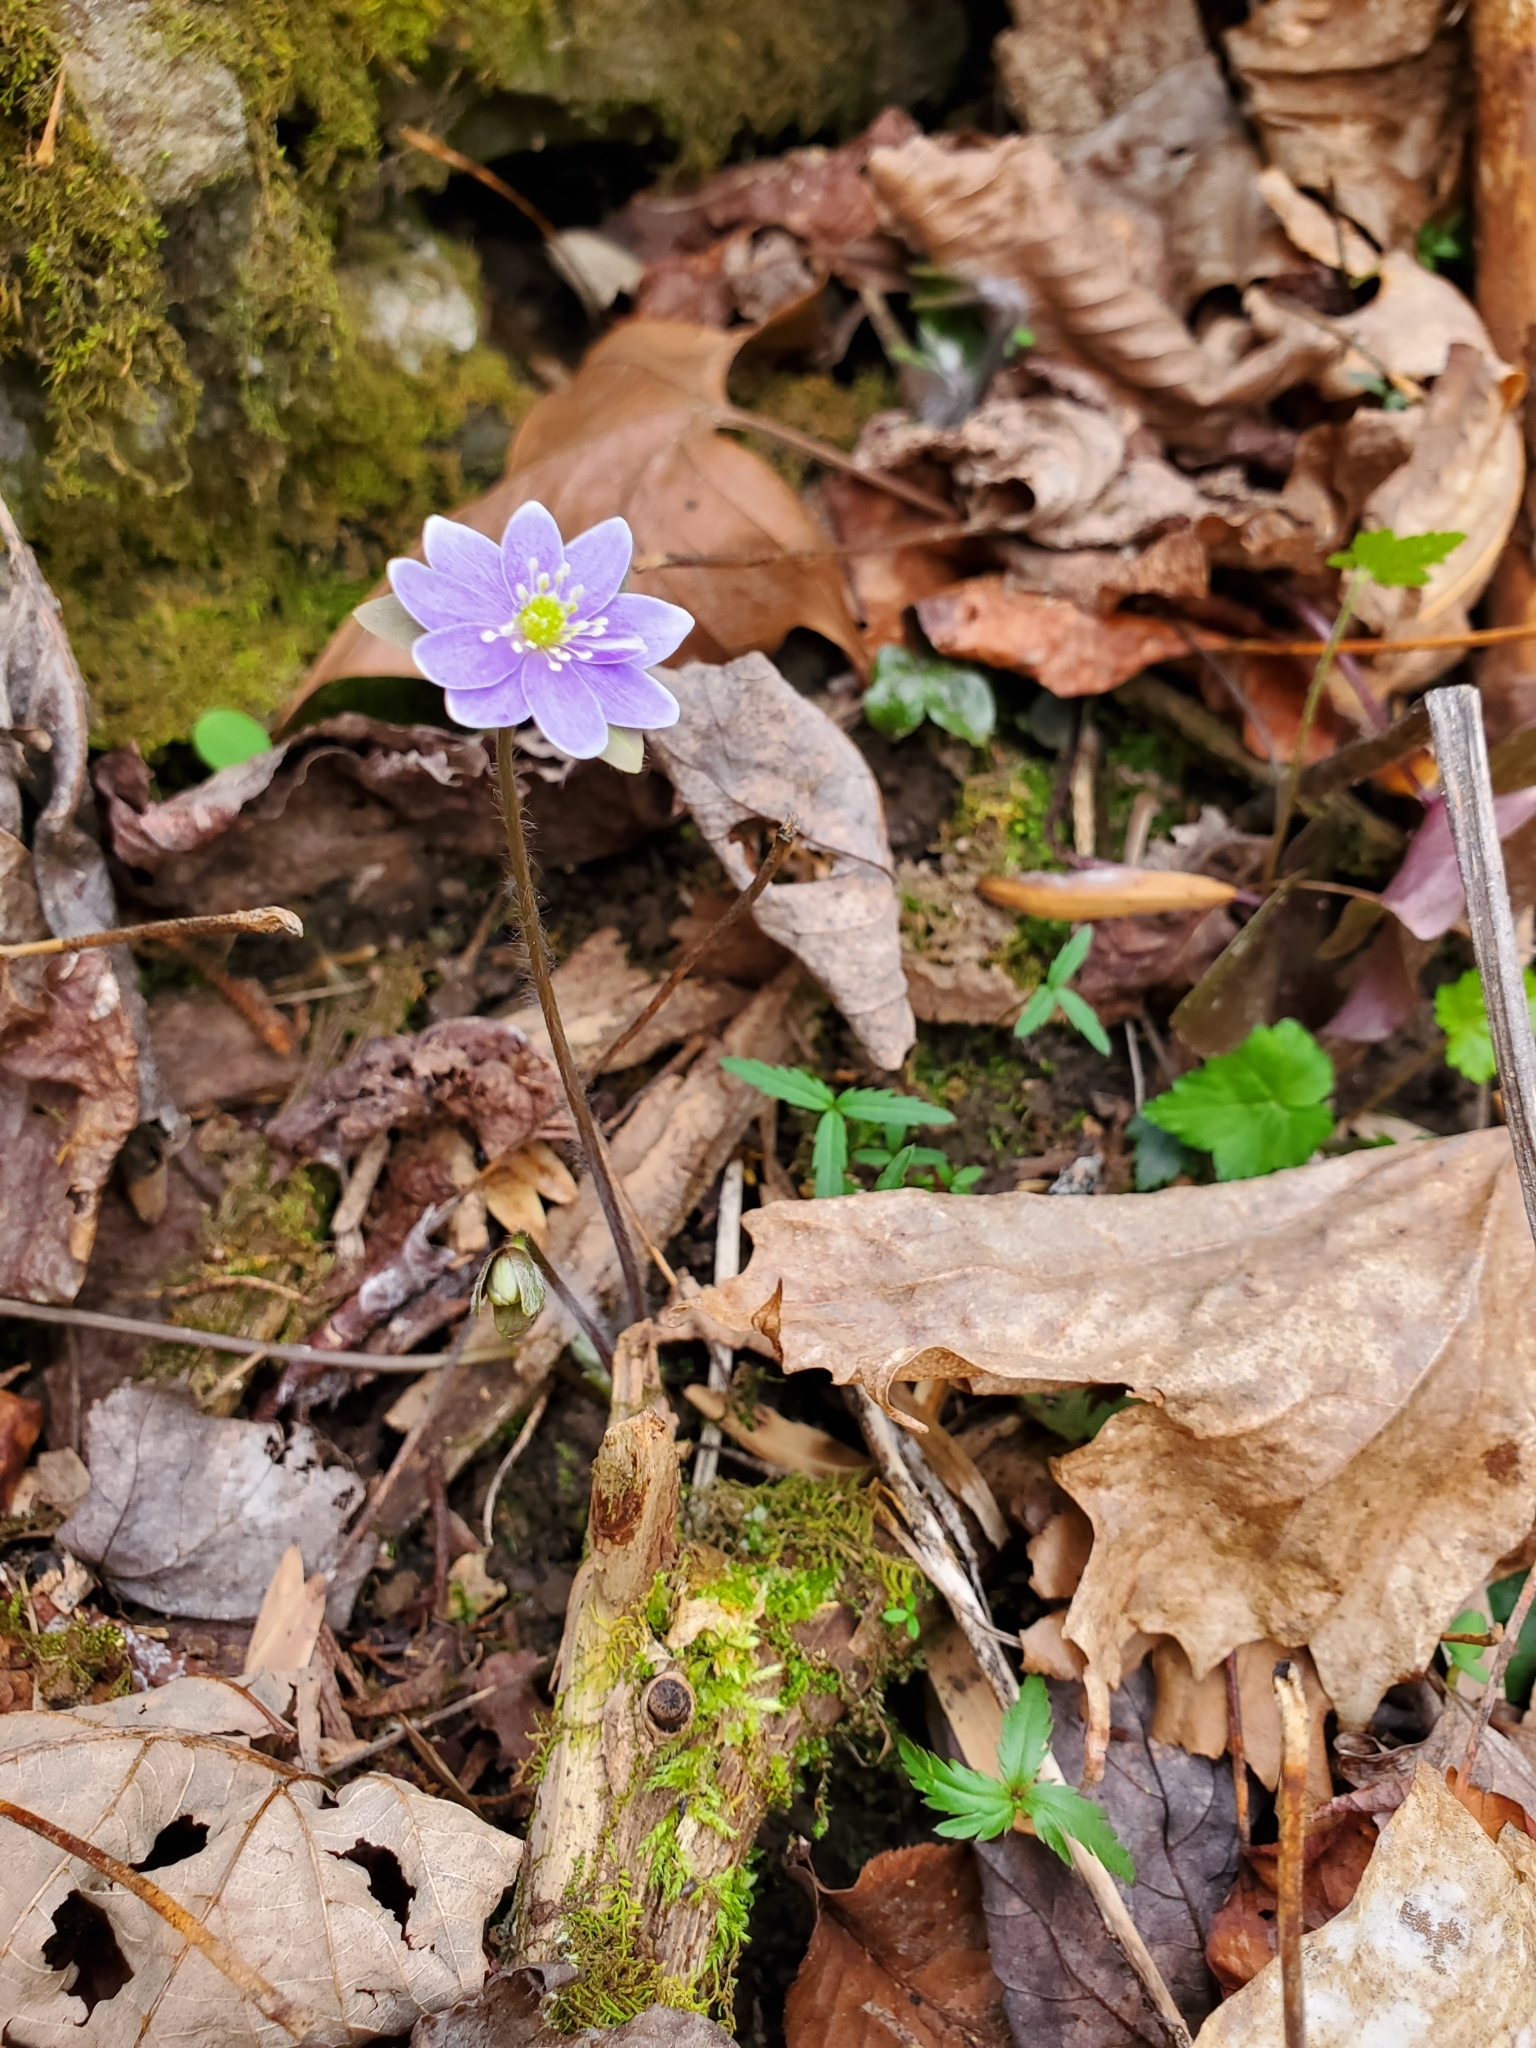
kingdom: Plantae
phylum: Tracheophyta
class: Magnoliopsida
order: Ranunculales
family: Ranunculaceae
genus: Hepatica
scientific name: Hepatica acutiloba
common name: Sharp-lobed hepatica
